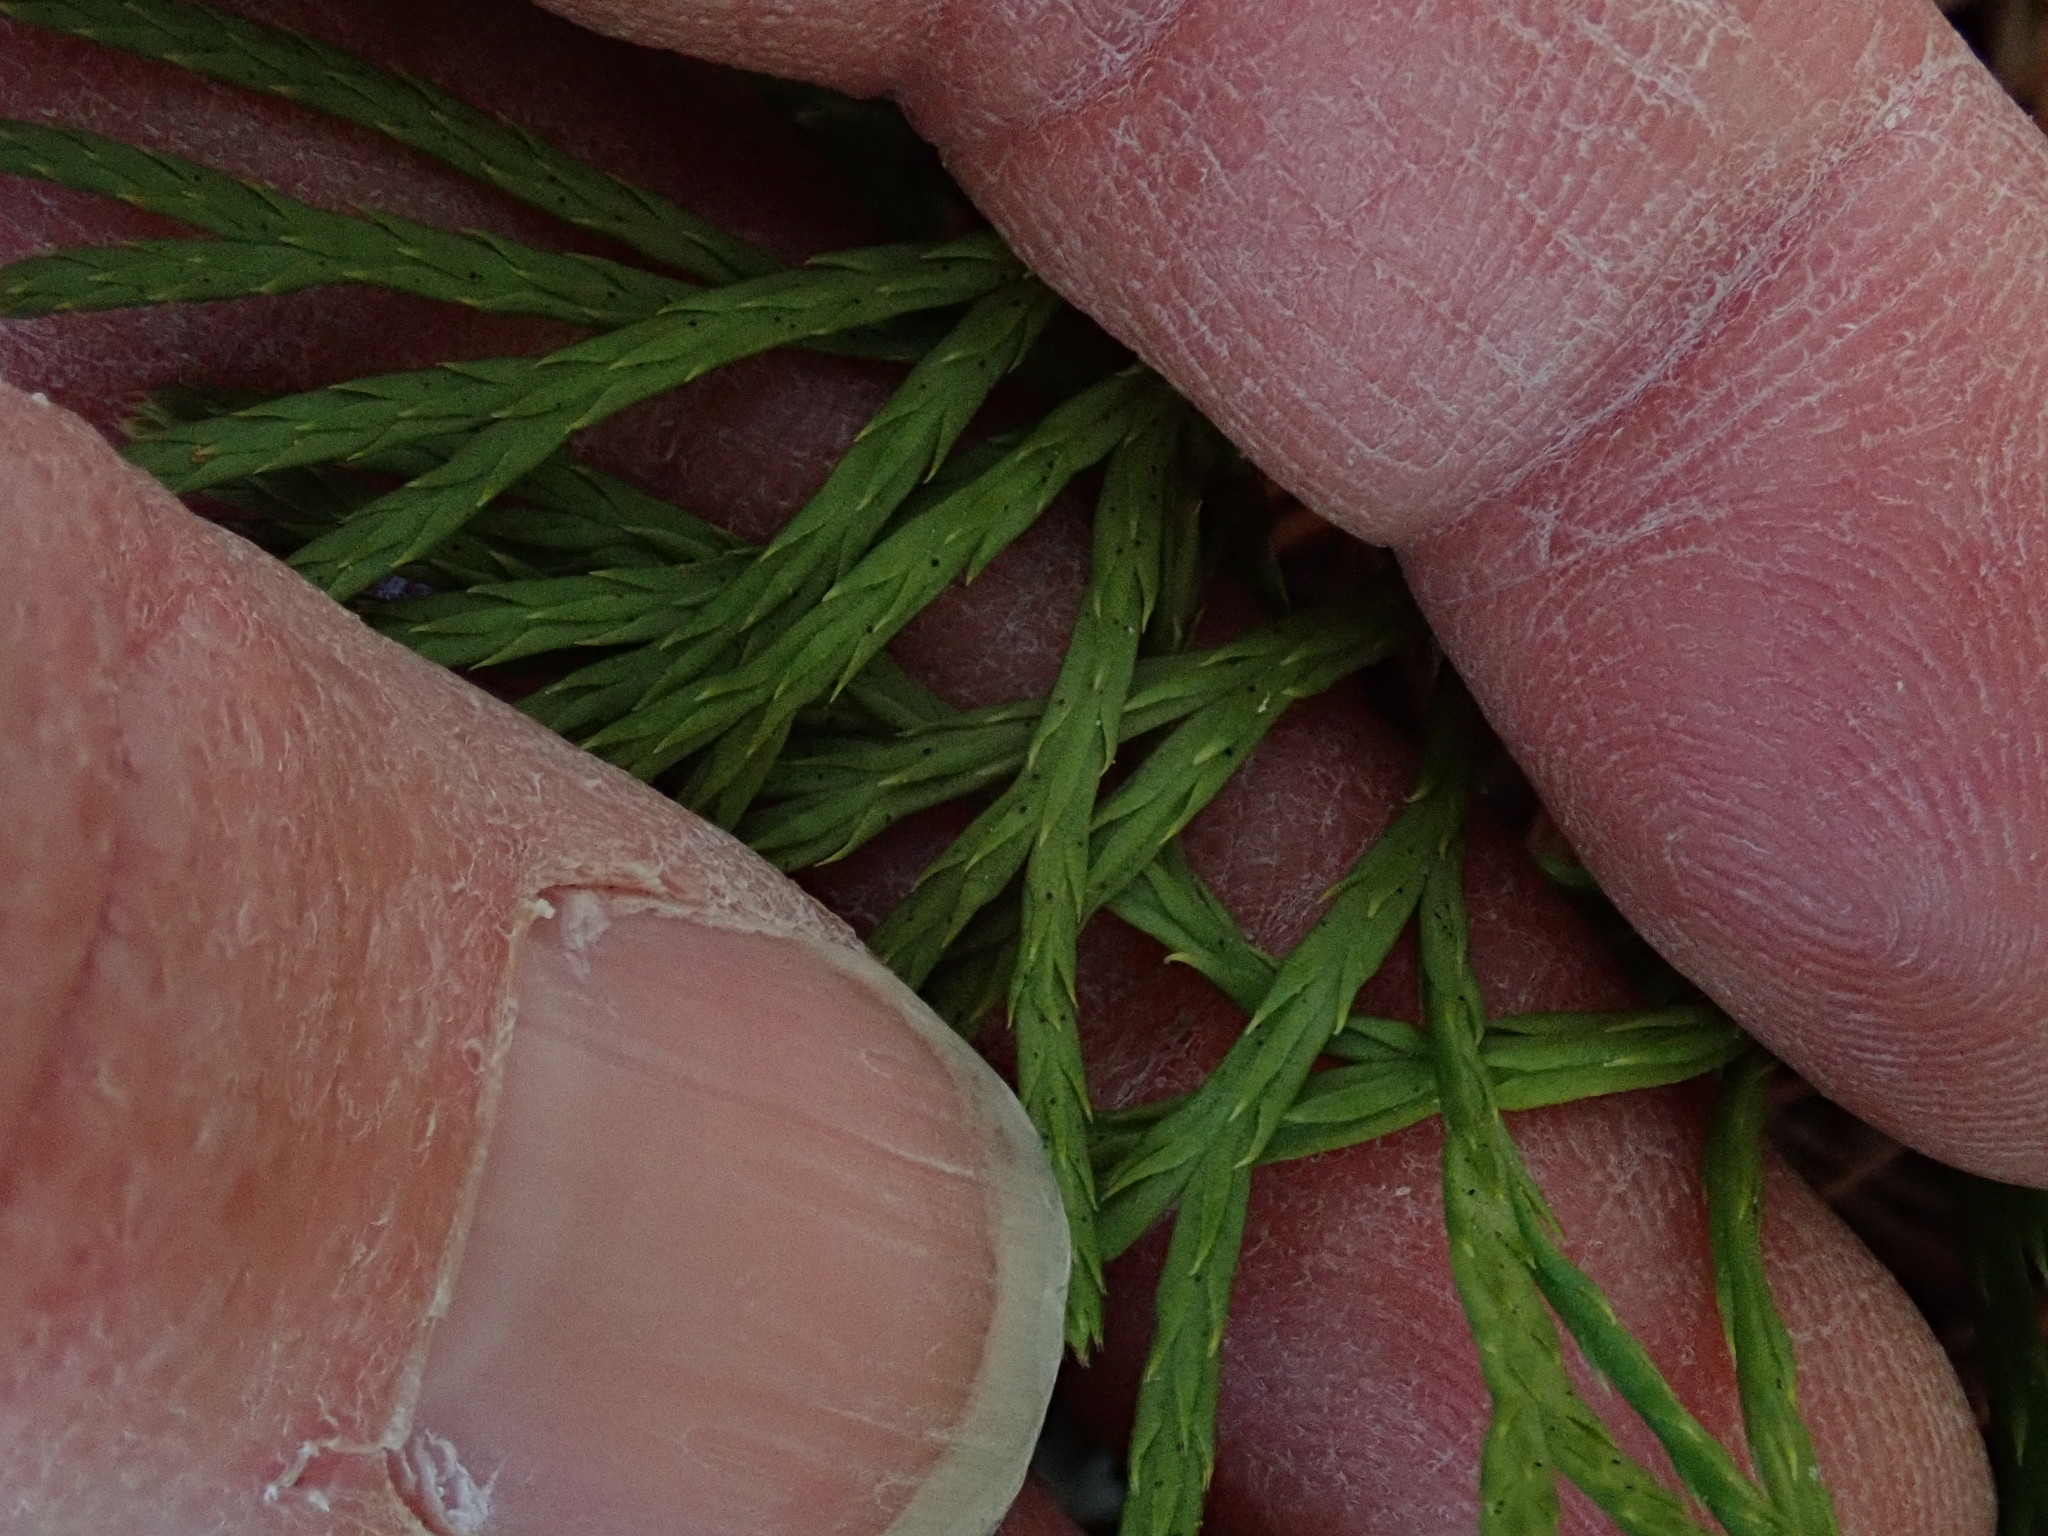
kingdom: Plantae
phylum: Tracheophyta
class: Lycopodiopsida
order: Lycopodiales
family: Lycopodiaceae
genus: Diphasiastrum
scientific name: Diphasiastrum digitatum
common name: Southern running-pine
